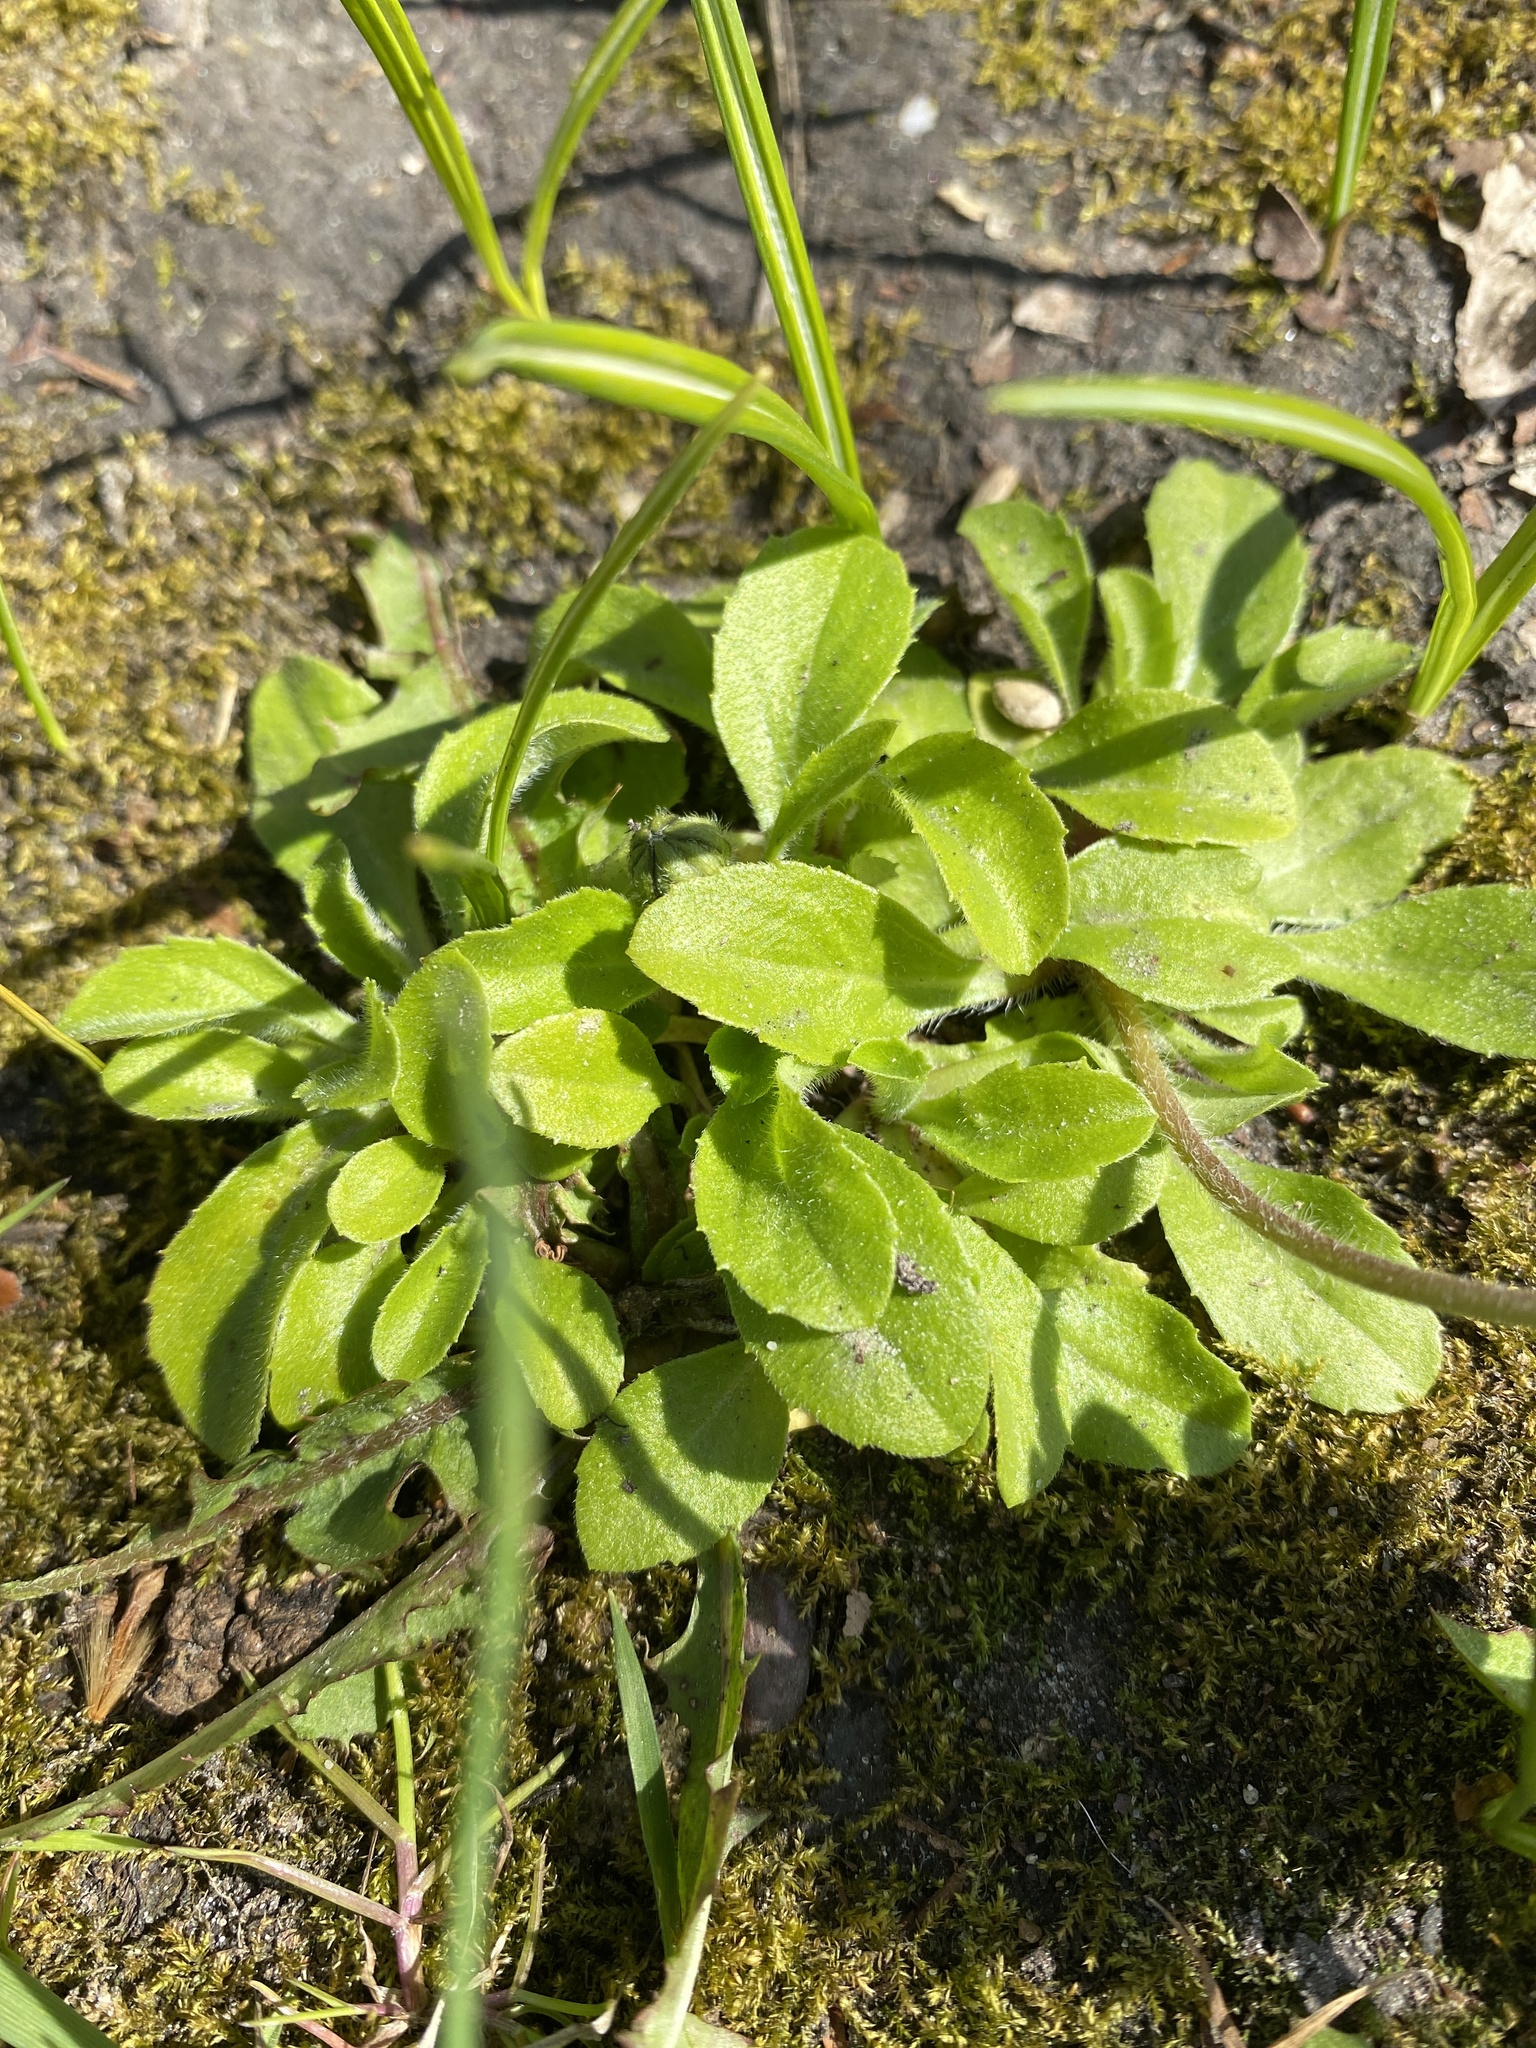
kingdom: Plantae
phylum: Tracheophyta
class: Magnoliopsida
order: Asterales
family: Asteraceae
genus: Bellis
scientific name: Bellis perennis
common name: Lawndaisy
